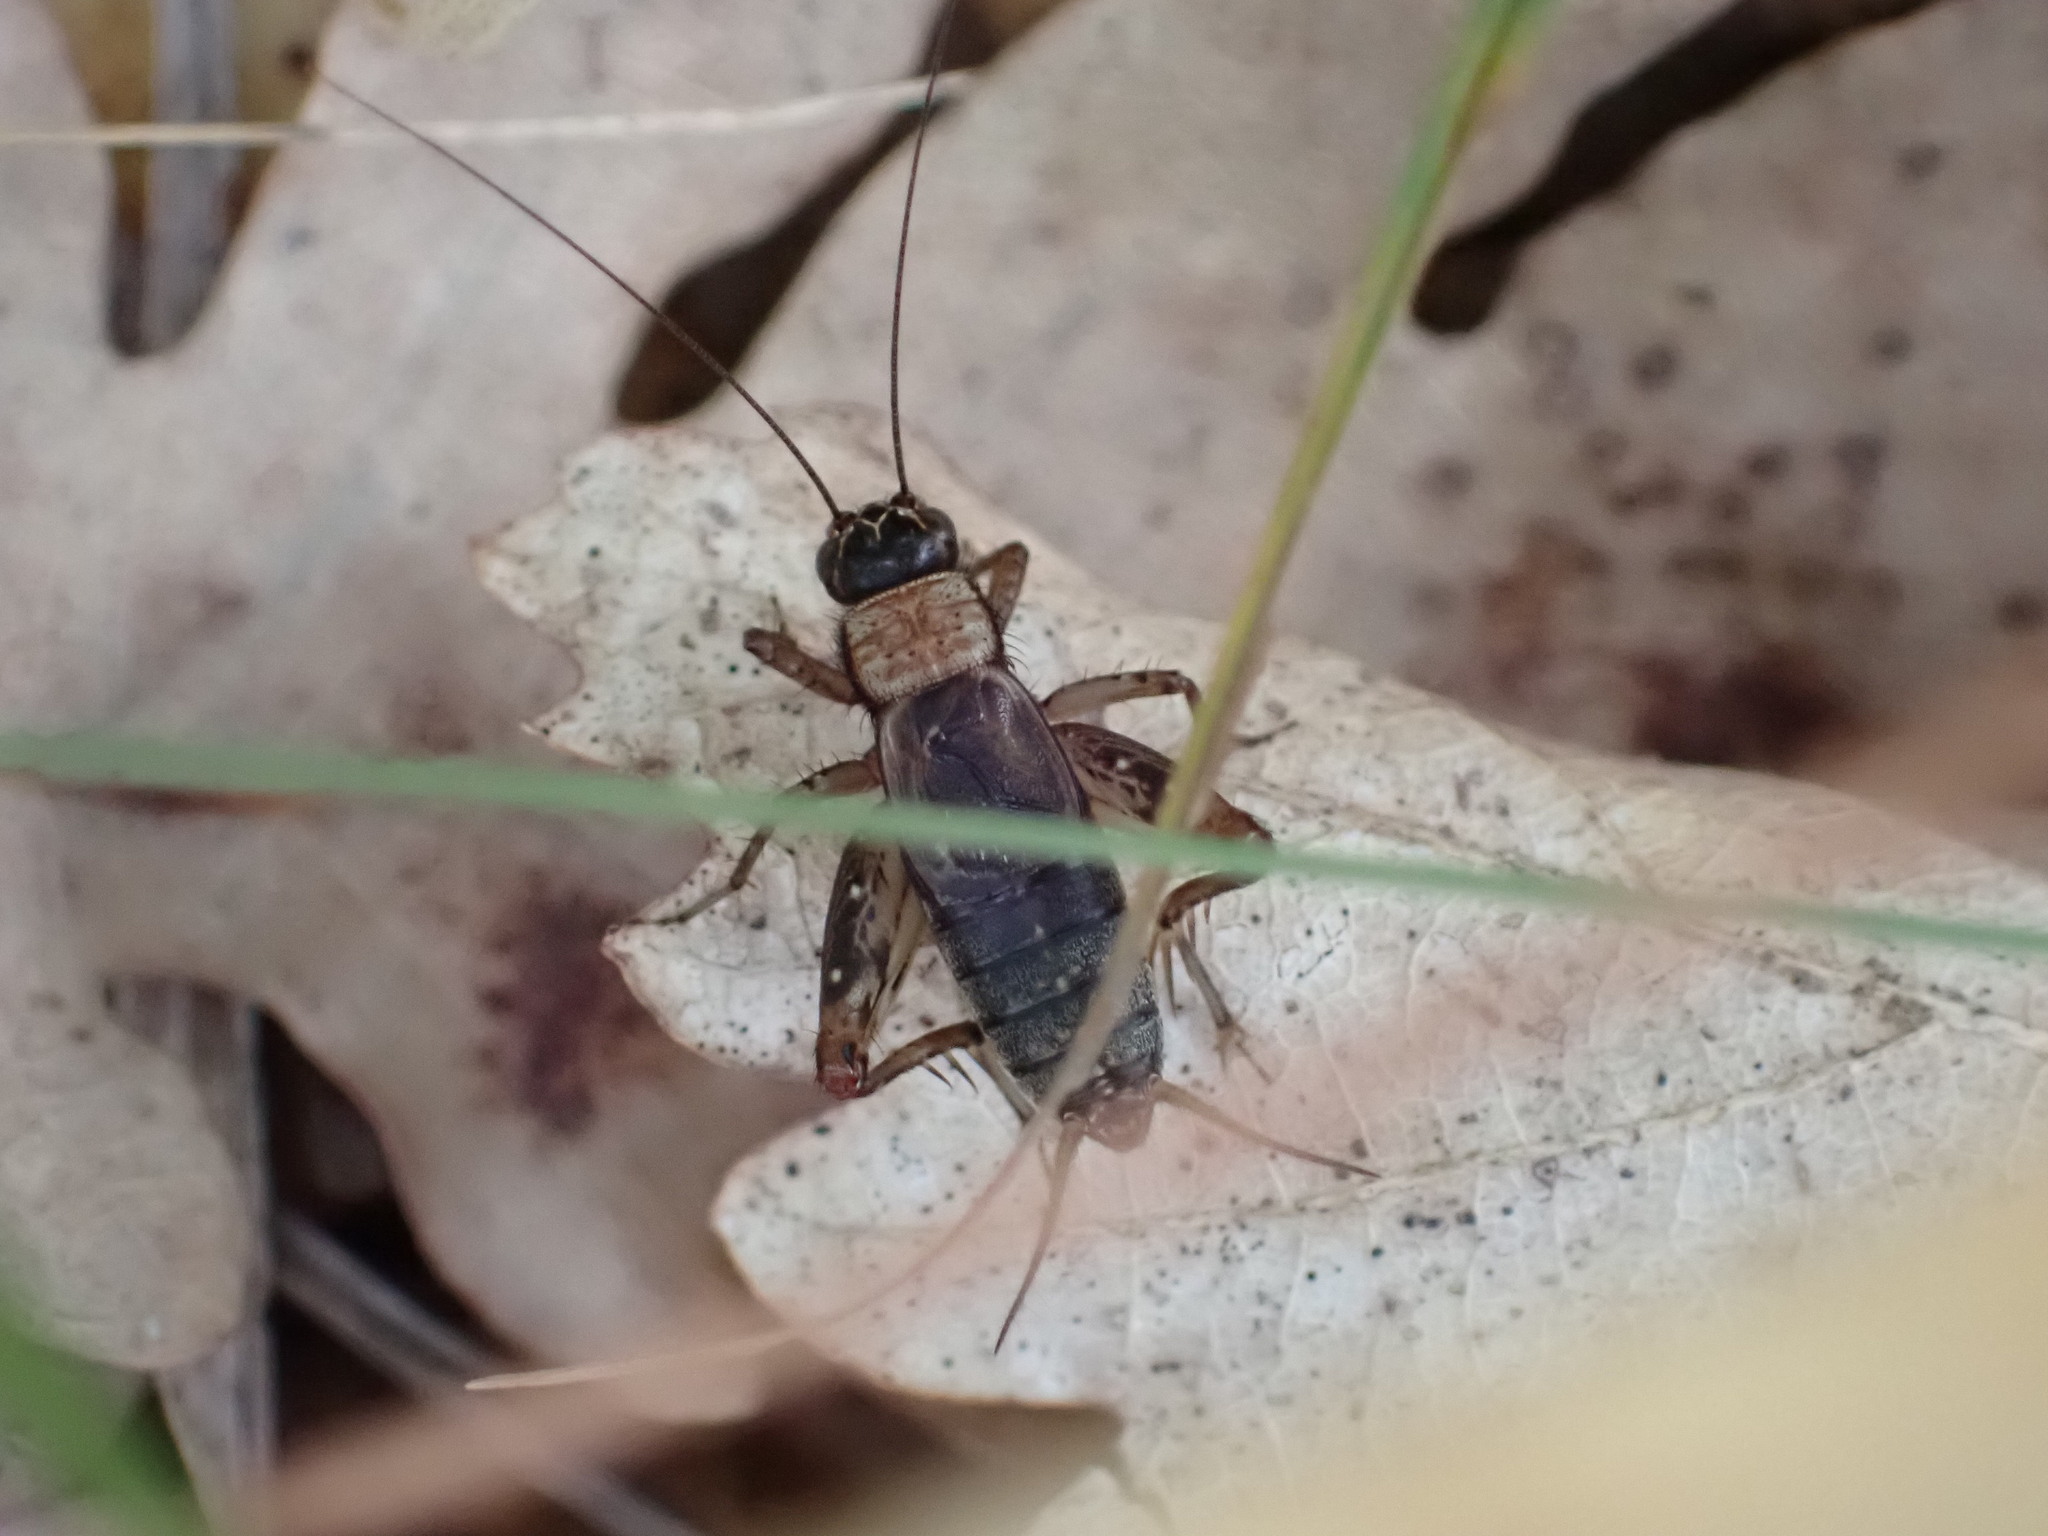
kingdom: Animalia
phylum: Arthropoda
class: Insecta
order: Orthoptera
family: Trigonidiidae
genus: Nemobius
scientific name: Nemobius sylvestris
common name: Wood-cricket
